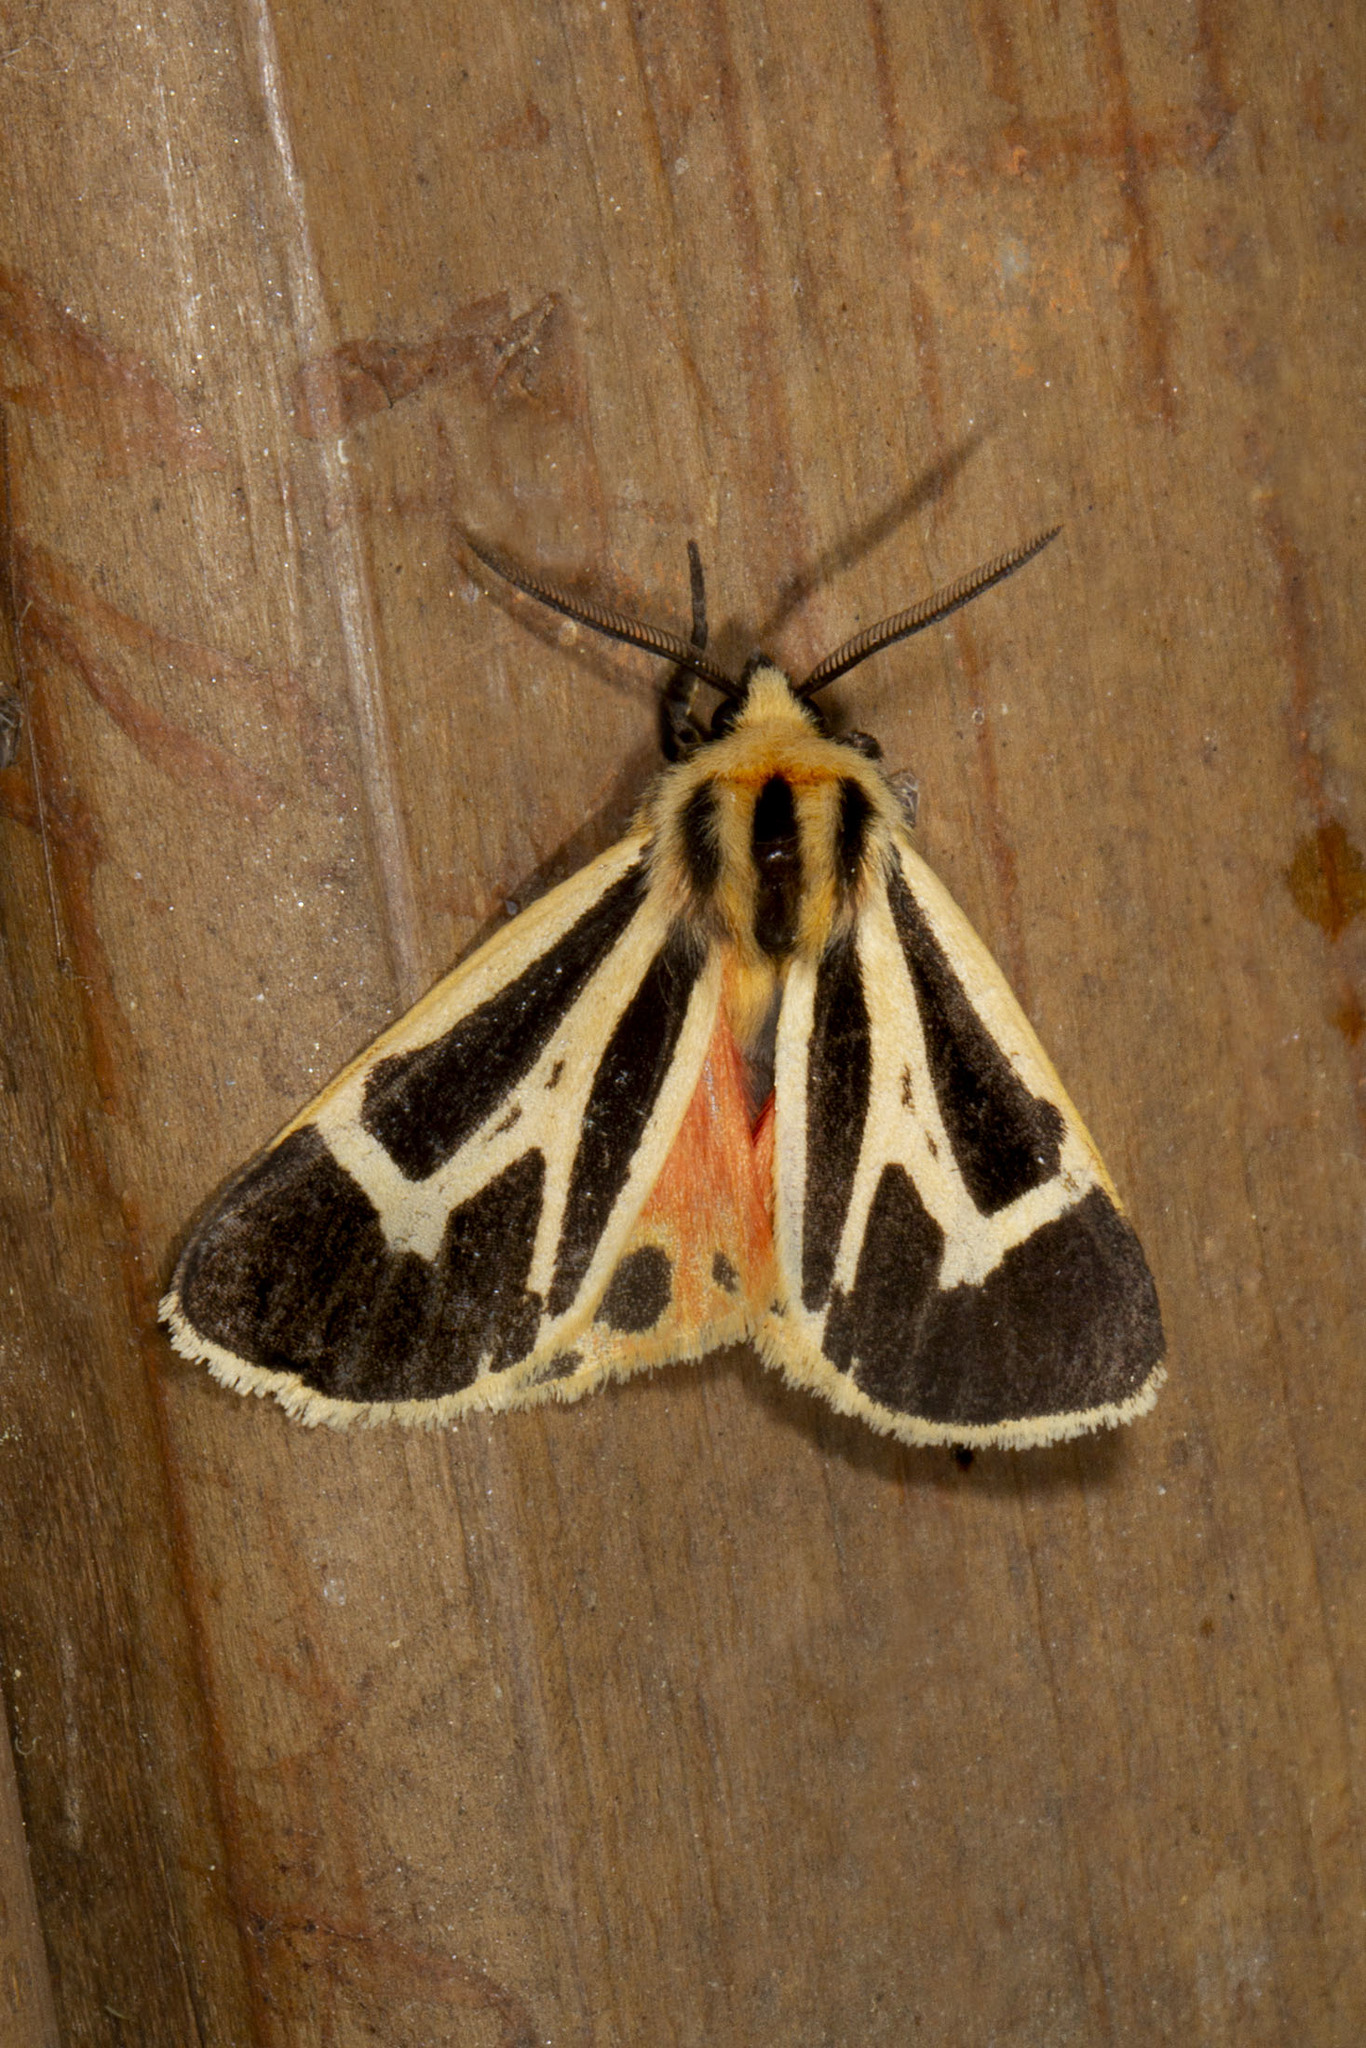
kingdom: Animalia
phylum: Arthropoda
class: Insecta
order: Lepidoptera
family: Erebidae
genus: Apantesis
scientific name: Apantesis nais
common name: Nais tiger moth
